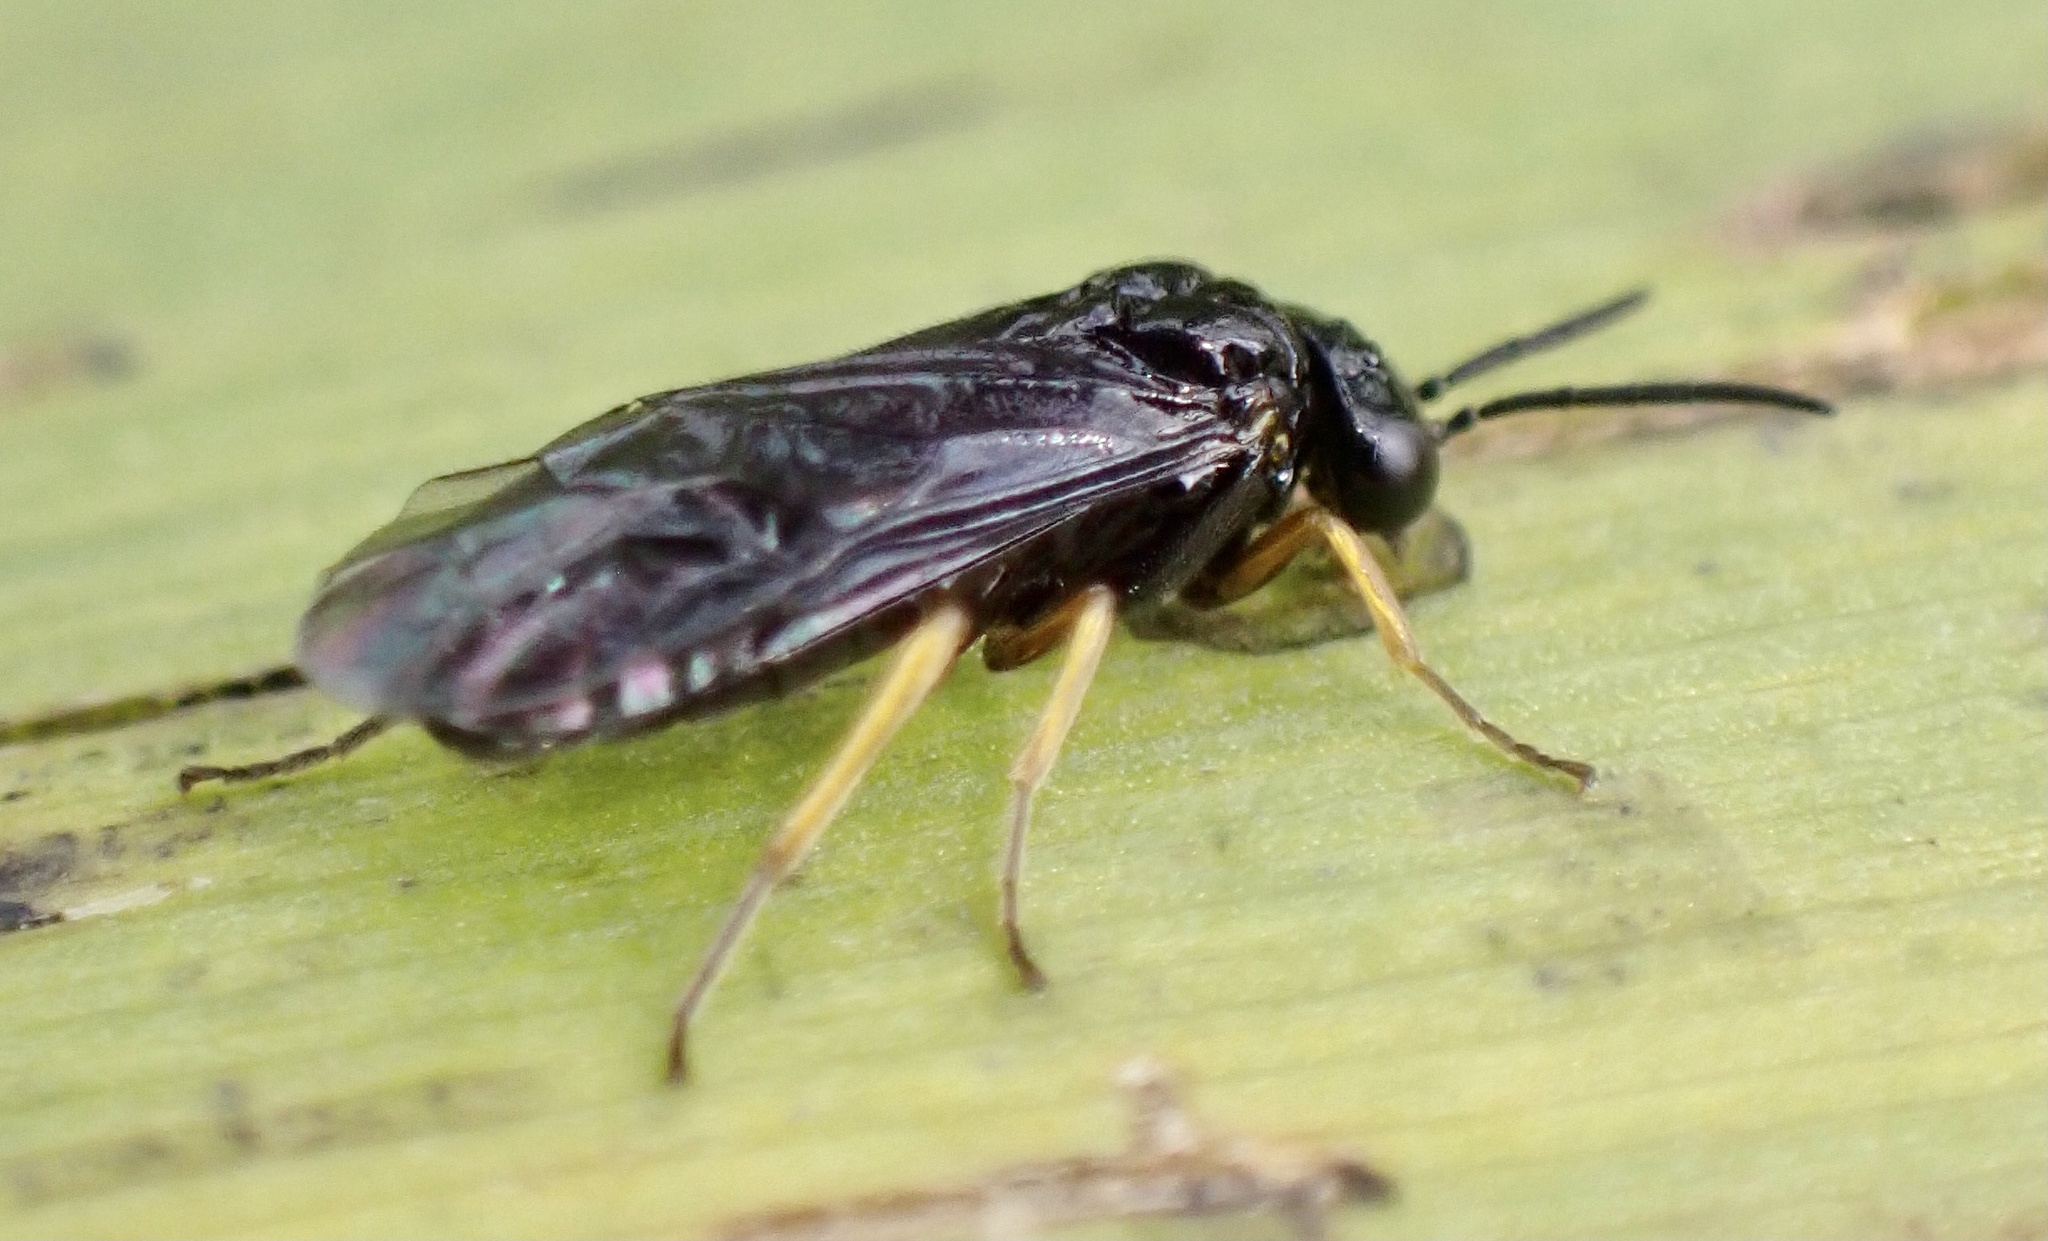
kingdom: Animalia
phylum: Arthropoda
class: Insecta
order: Hymenoptera
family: Tenthredinidae
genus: Nesoselandria
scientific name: Nesoselandria morio
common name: Tenthredid wasp
